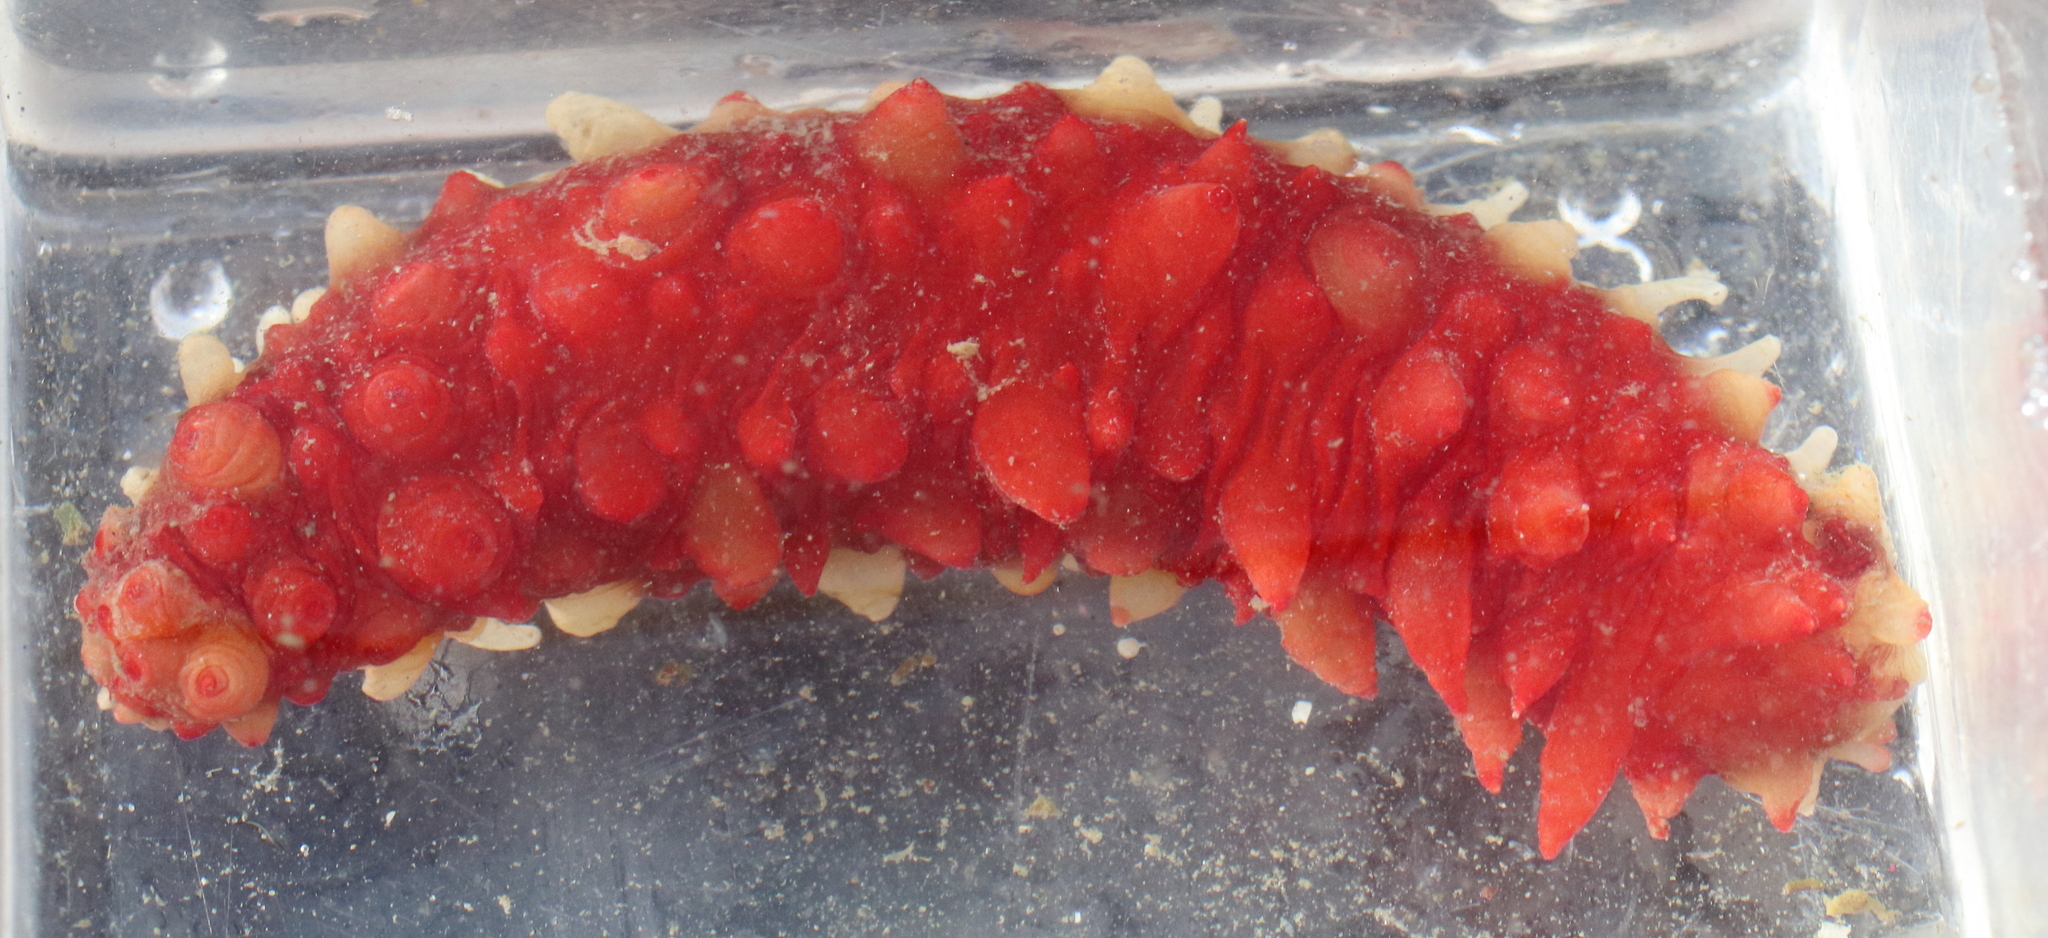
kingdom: Animalia
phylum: Echinodermata
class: Holothuroidea
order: Synallactida
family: Stichopodidae
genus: Apostichopus
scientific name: Apostichopus californicus
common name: California sea cucumber
